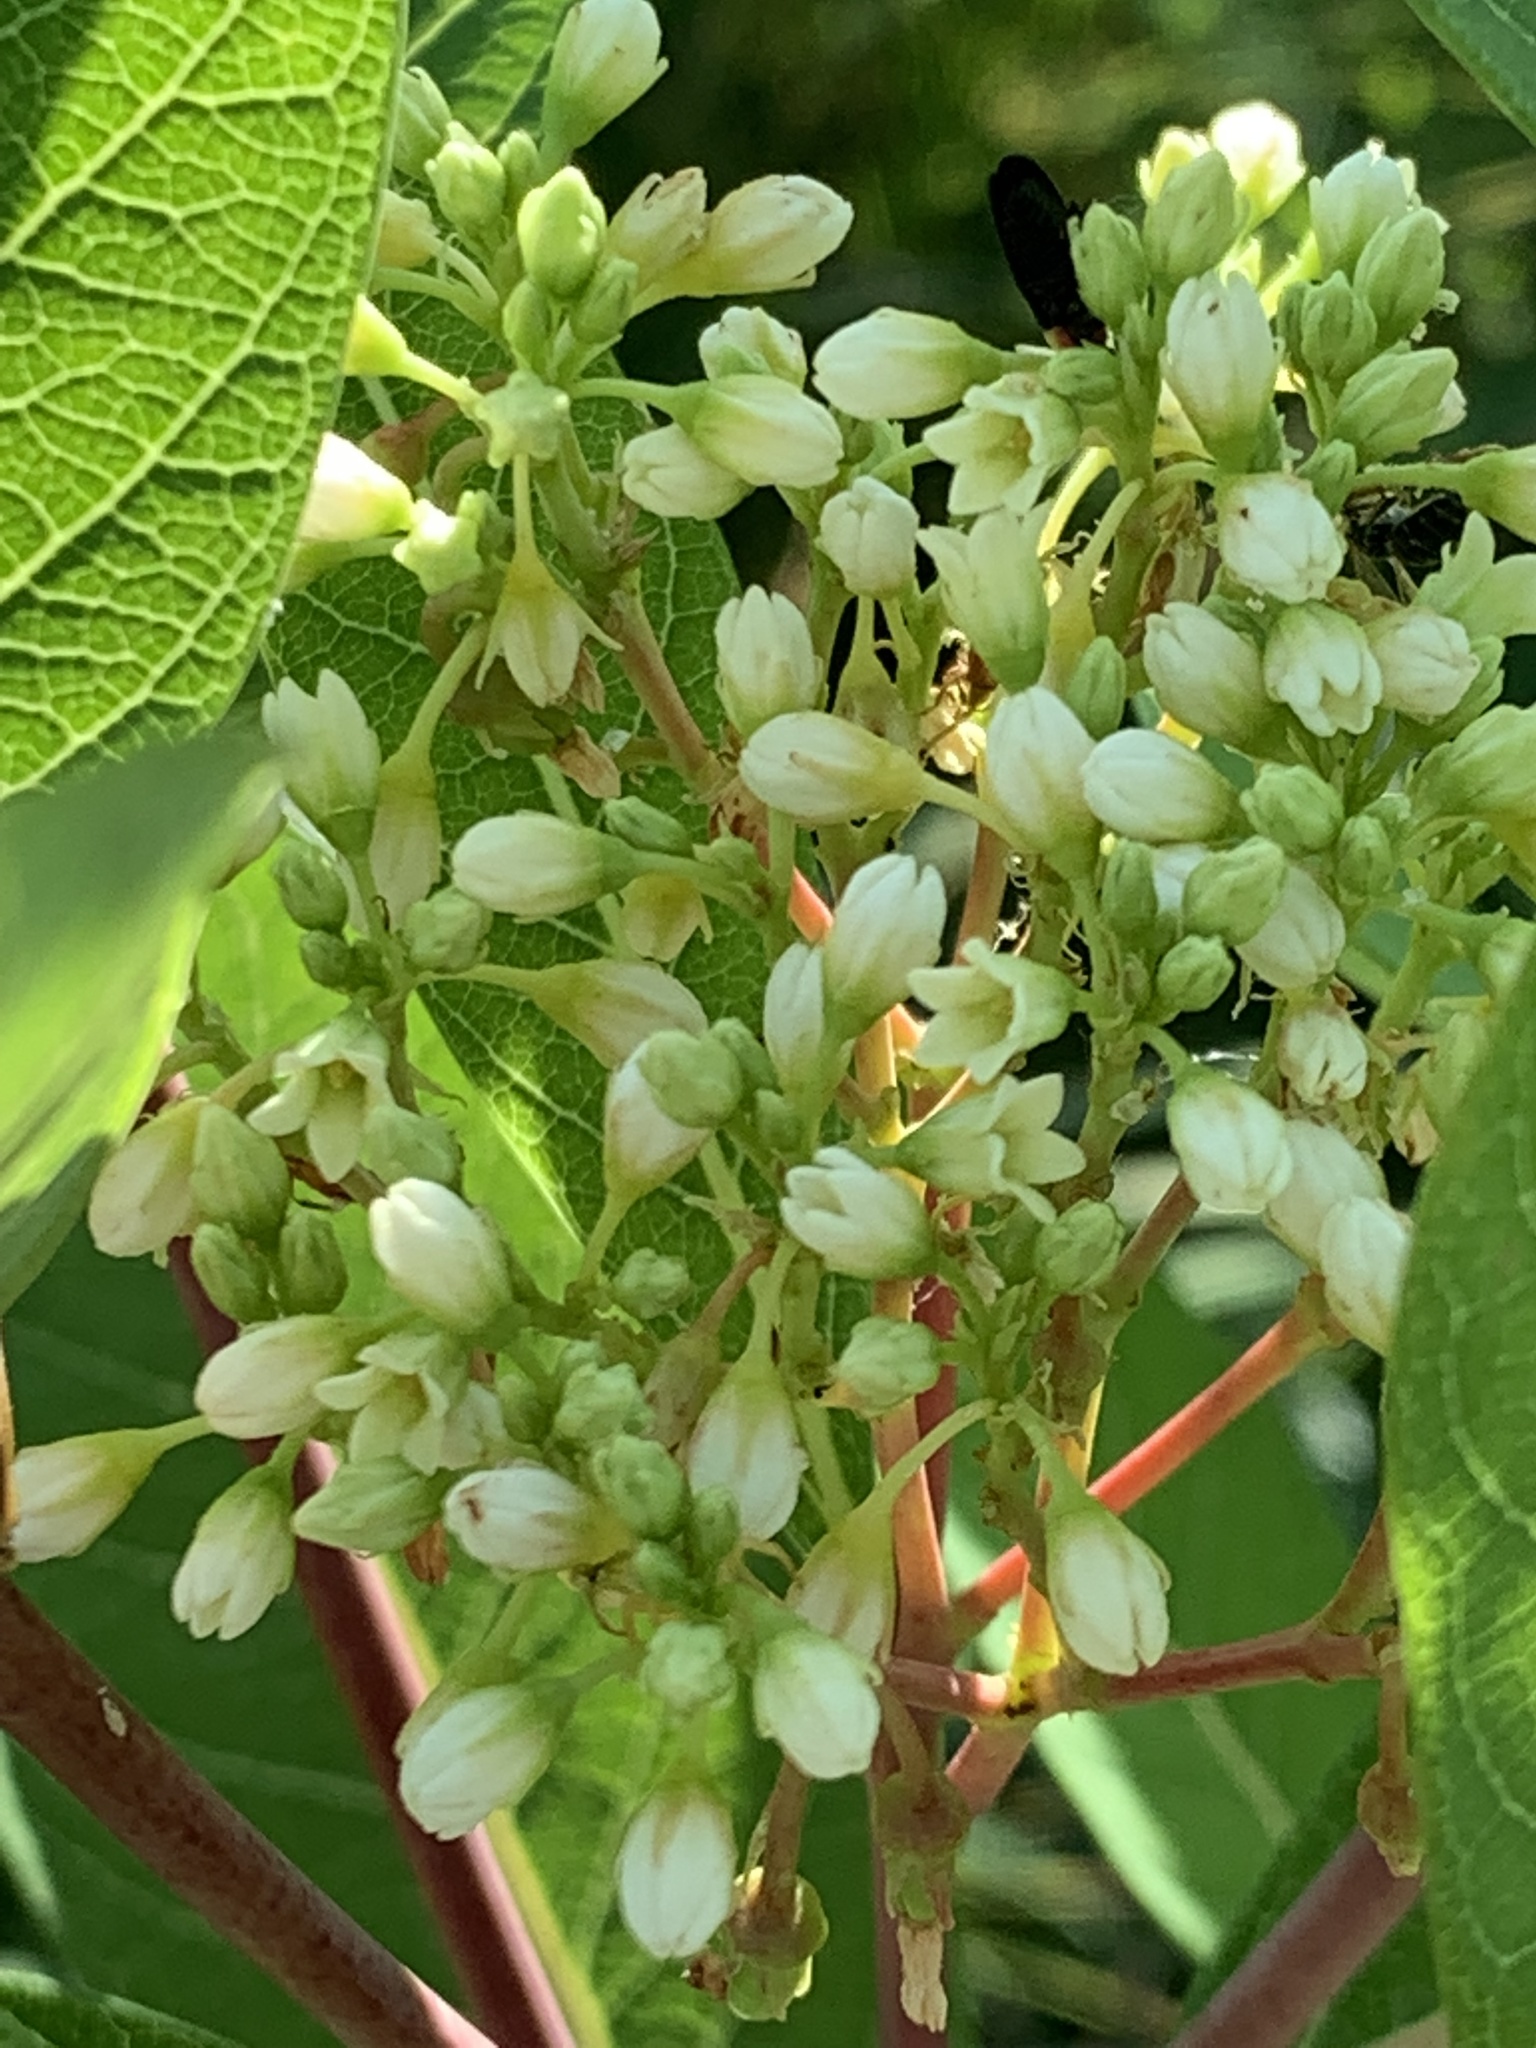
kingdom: Plantae
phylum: Tracheophyta
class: Magnoliopsida
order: Gentianales
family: Apocynaceae
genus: Apocynum
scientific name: Apocynum cannabinum
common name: Hemp dogbane
